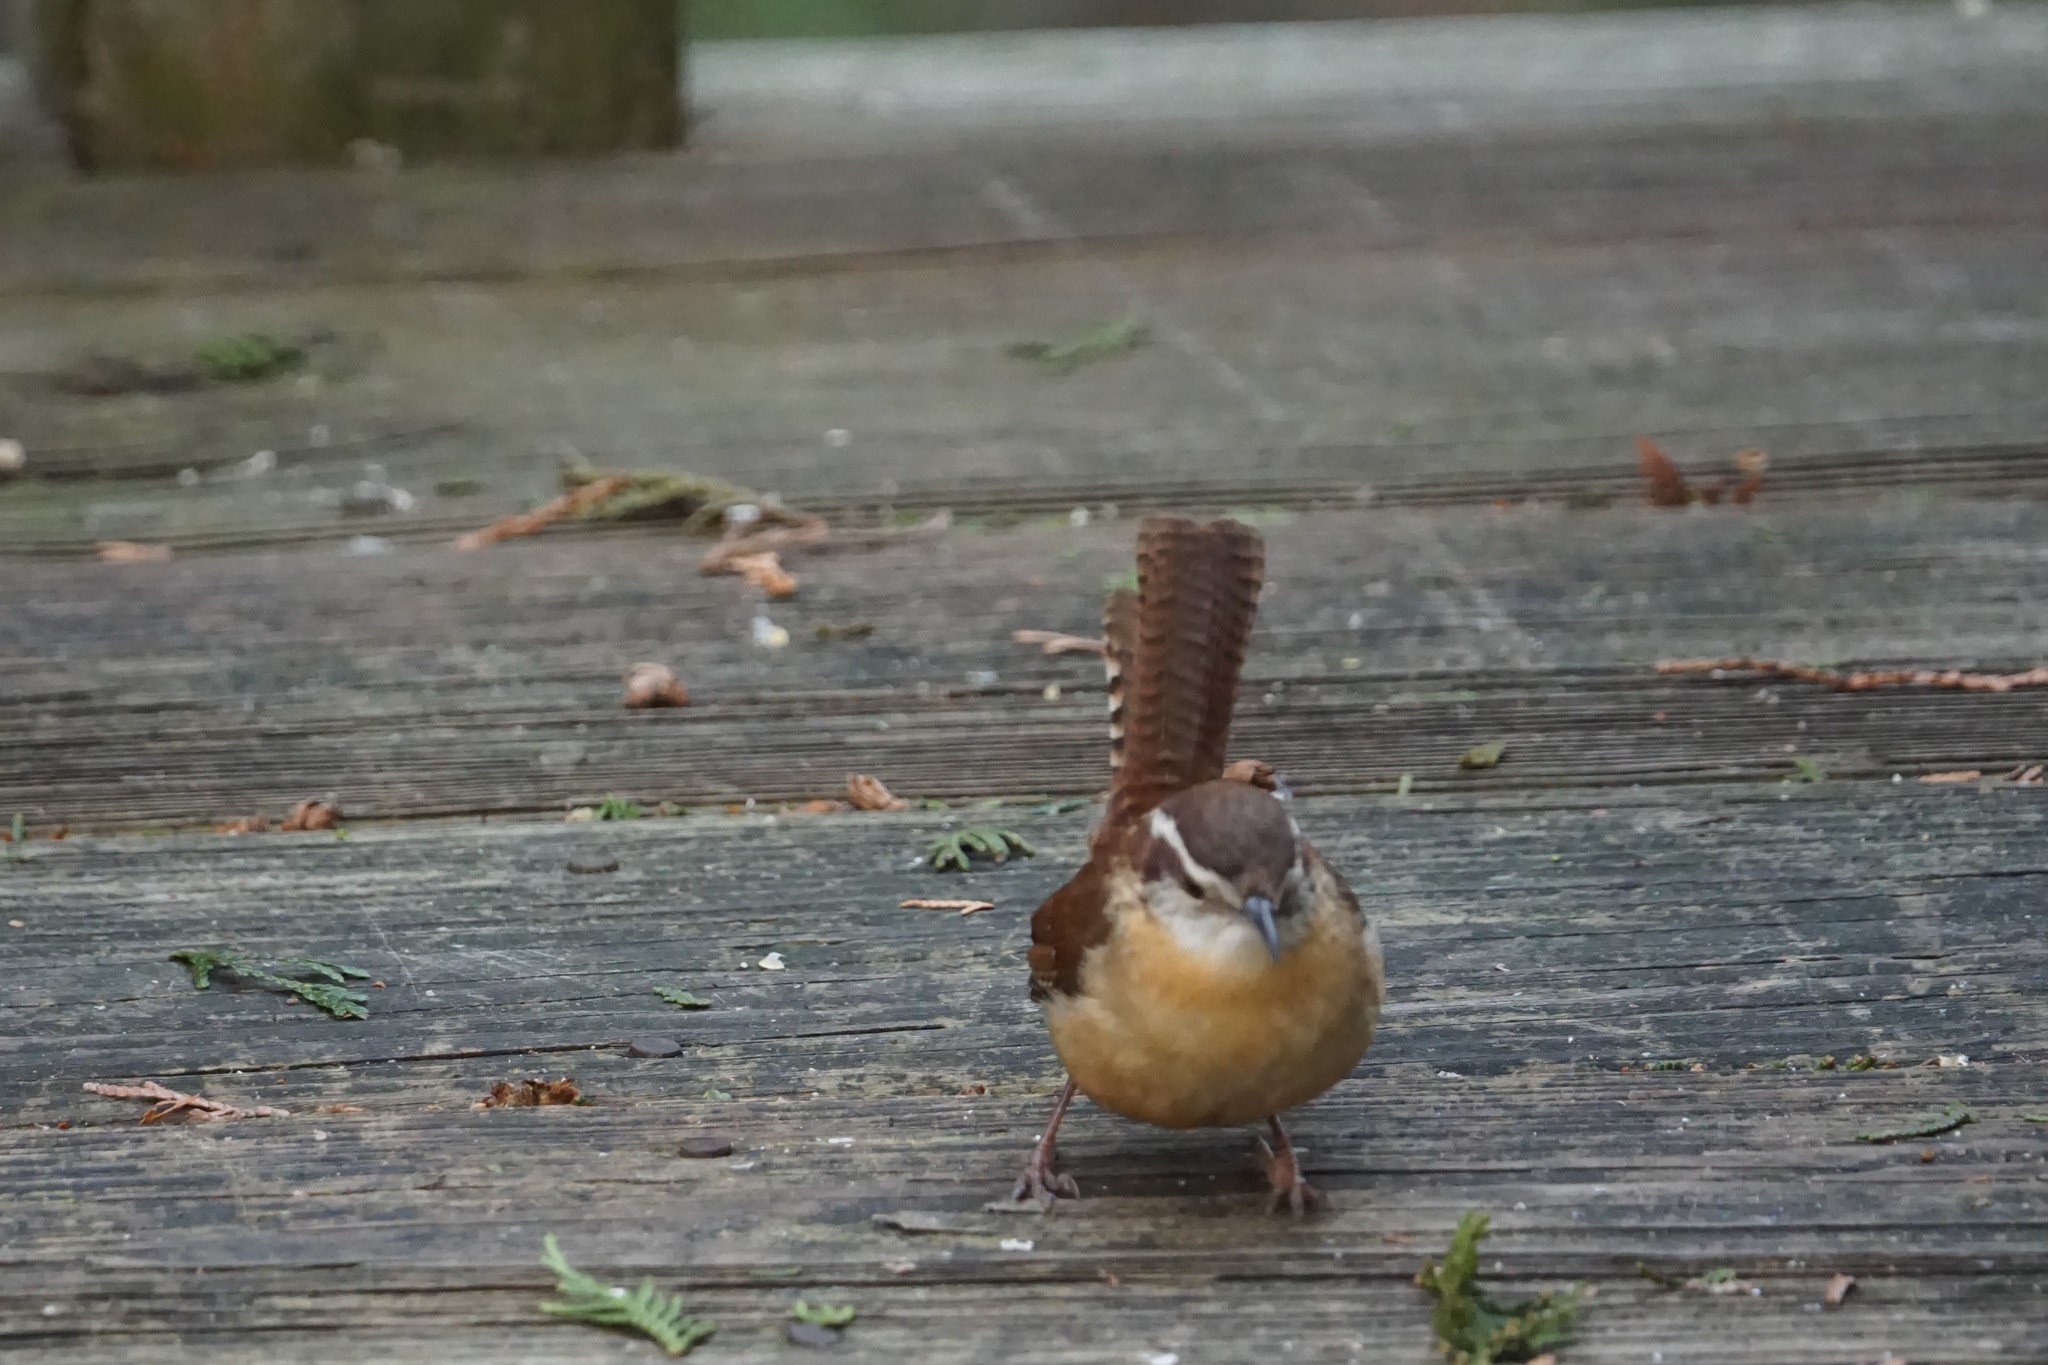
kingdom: Animalia
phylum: Chordata
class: Aves
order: Passeriformes
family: Troglodytidae
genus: Thryothorus
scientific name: Thryothorus ludovicianus
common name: Carolina wren
